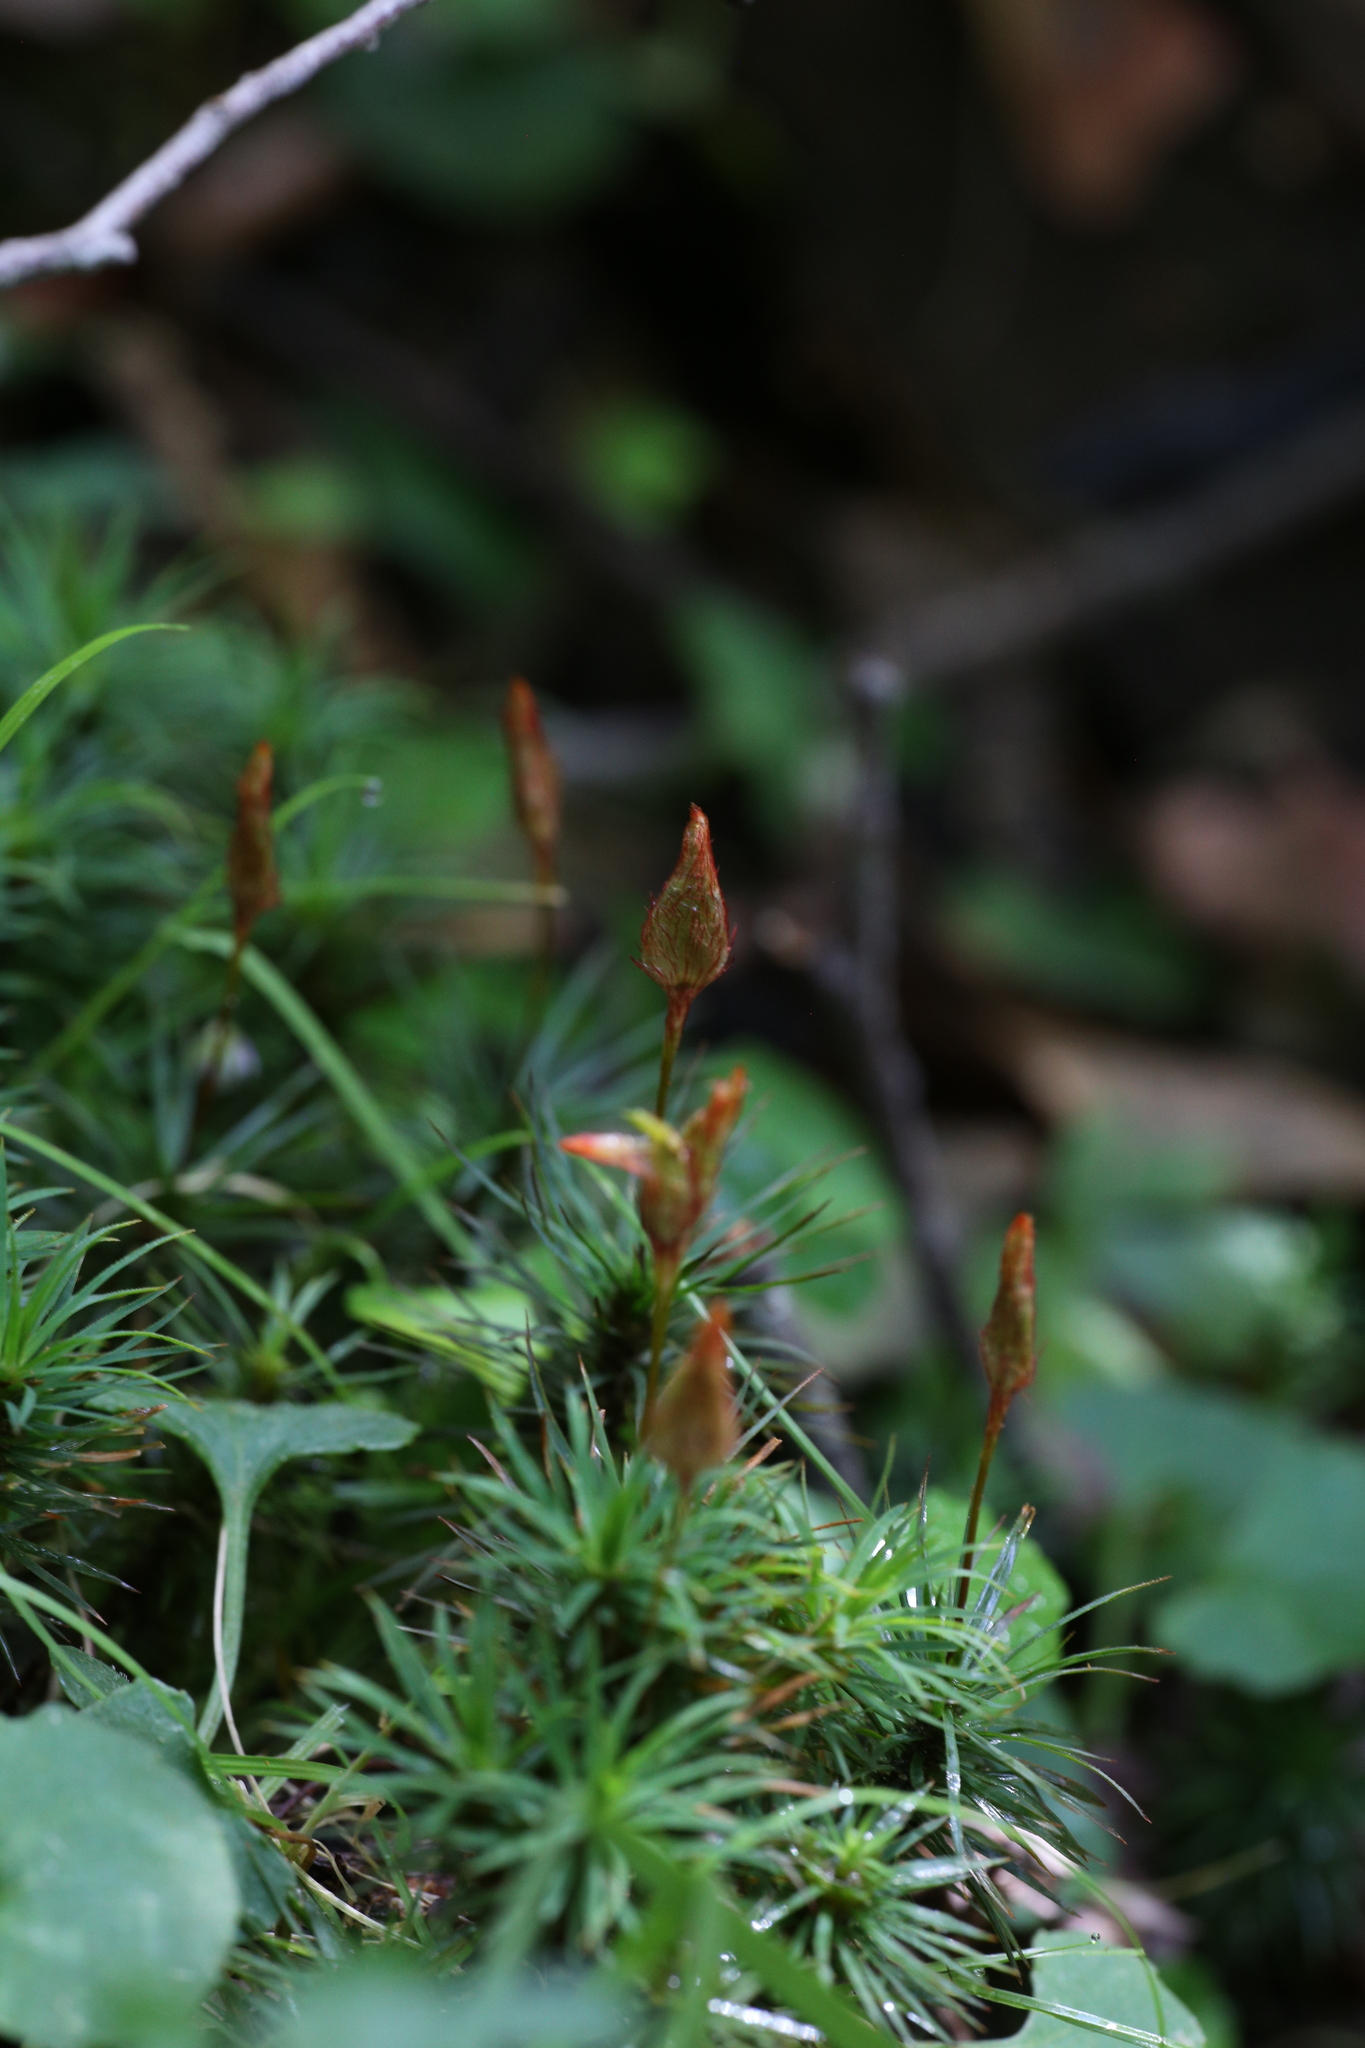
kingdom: Plantae
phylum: Bryophyta
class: Polytrichopsida
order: Polytrichales
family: Polytrichaceae
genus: Dawsonia
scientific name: Dawsonia polytrichoides
